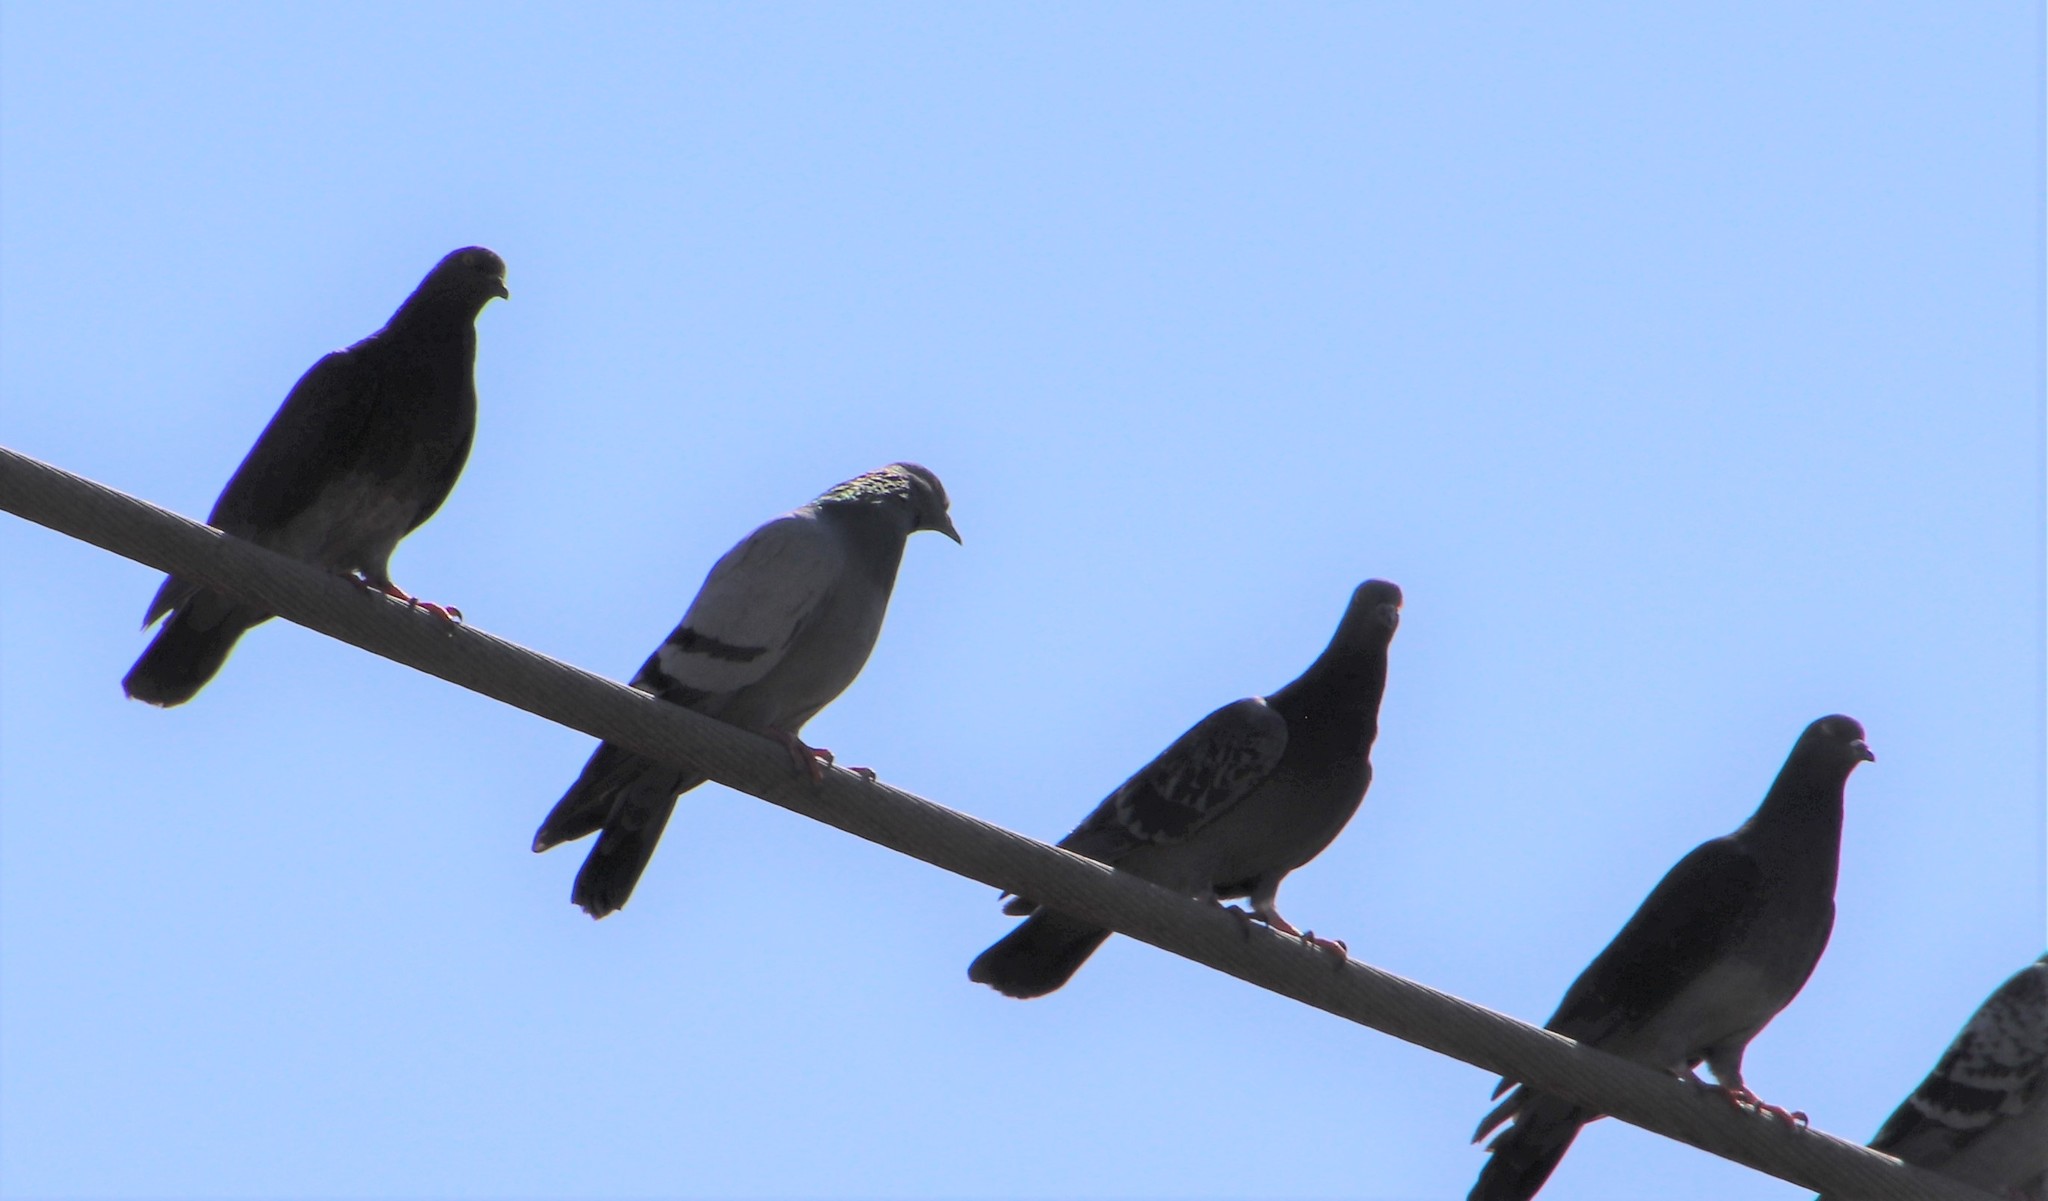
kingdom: Animalia
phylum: Chordata
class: Aves
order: Columbiformes
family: Columbidae
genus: Columba
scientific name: Columba livia
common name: Rock pigeon
